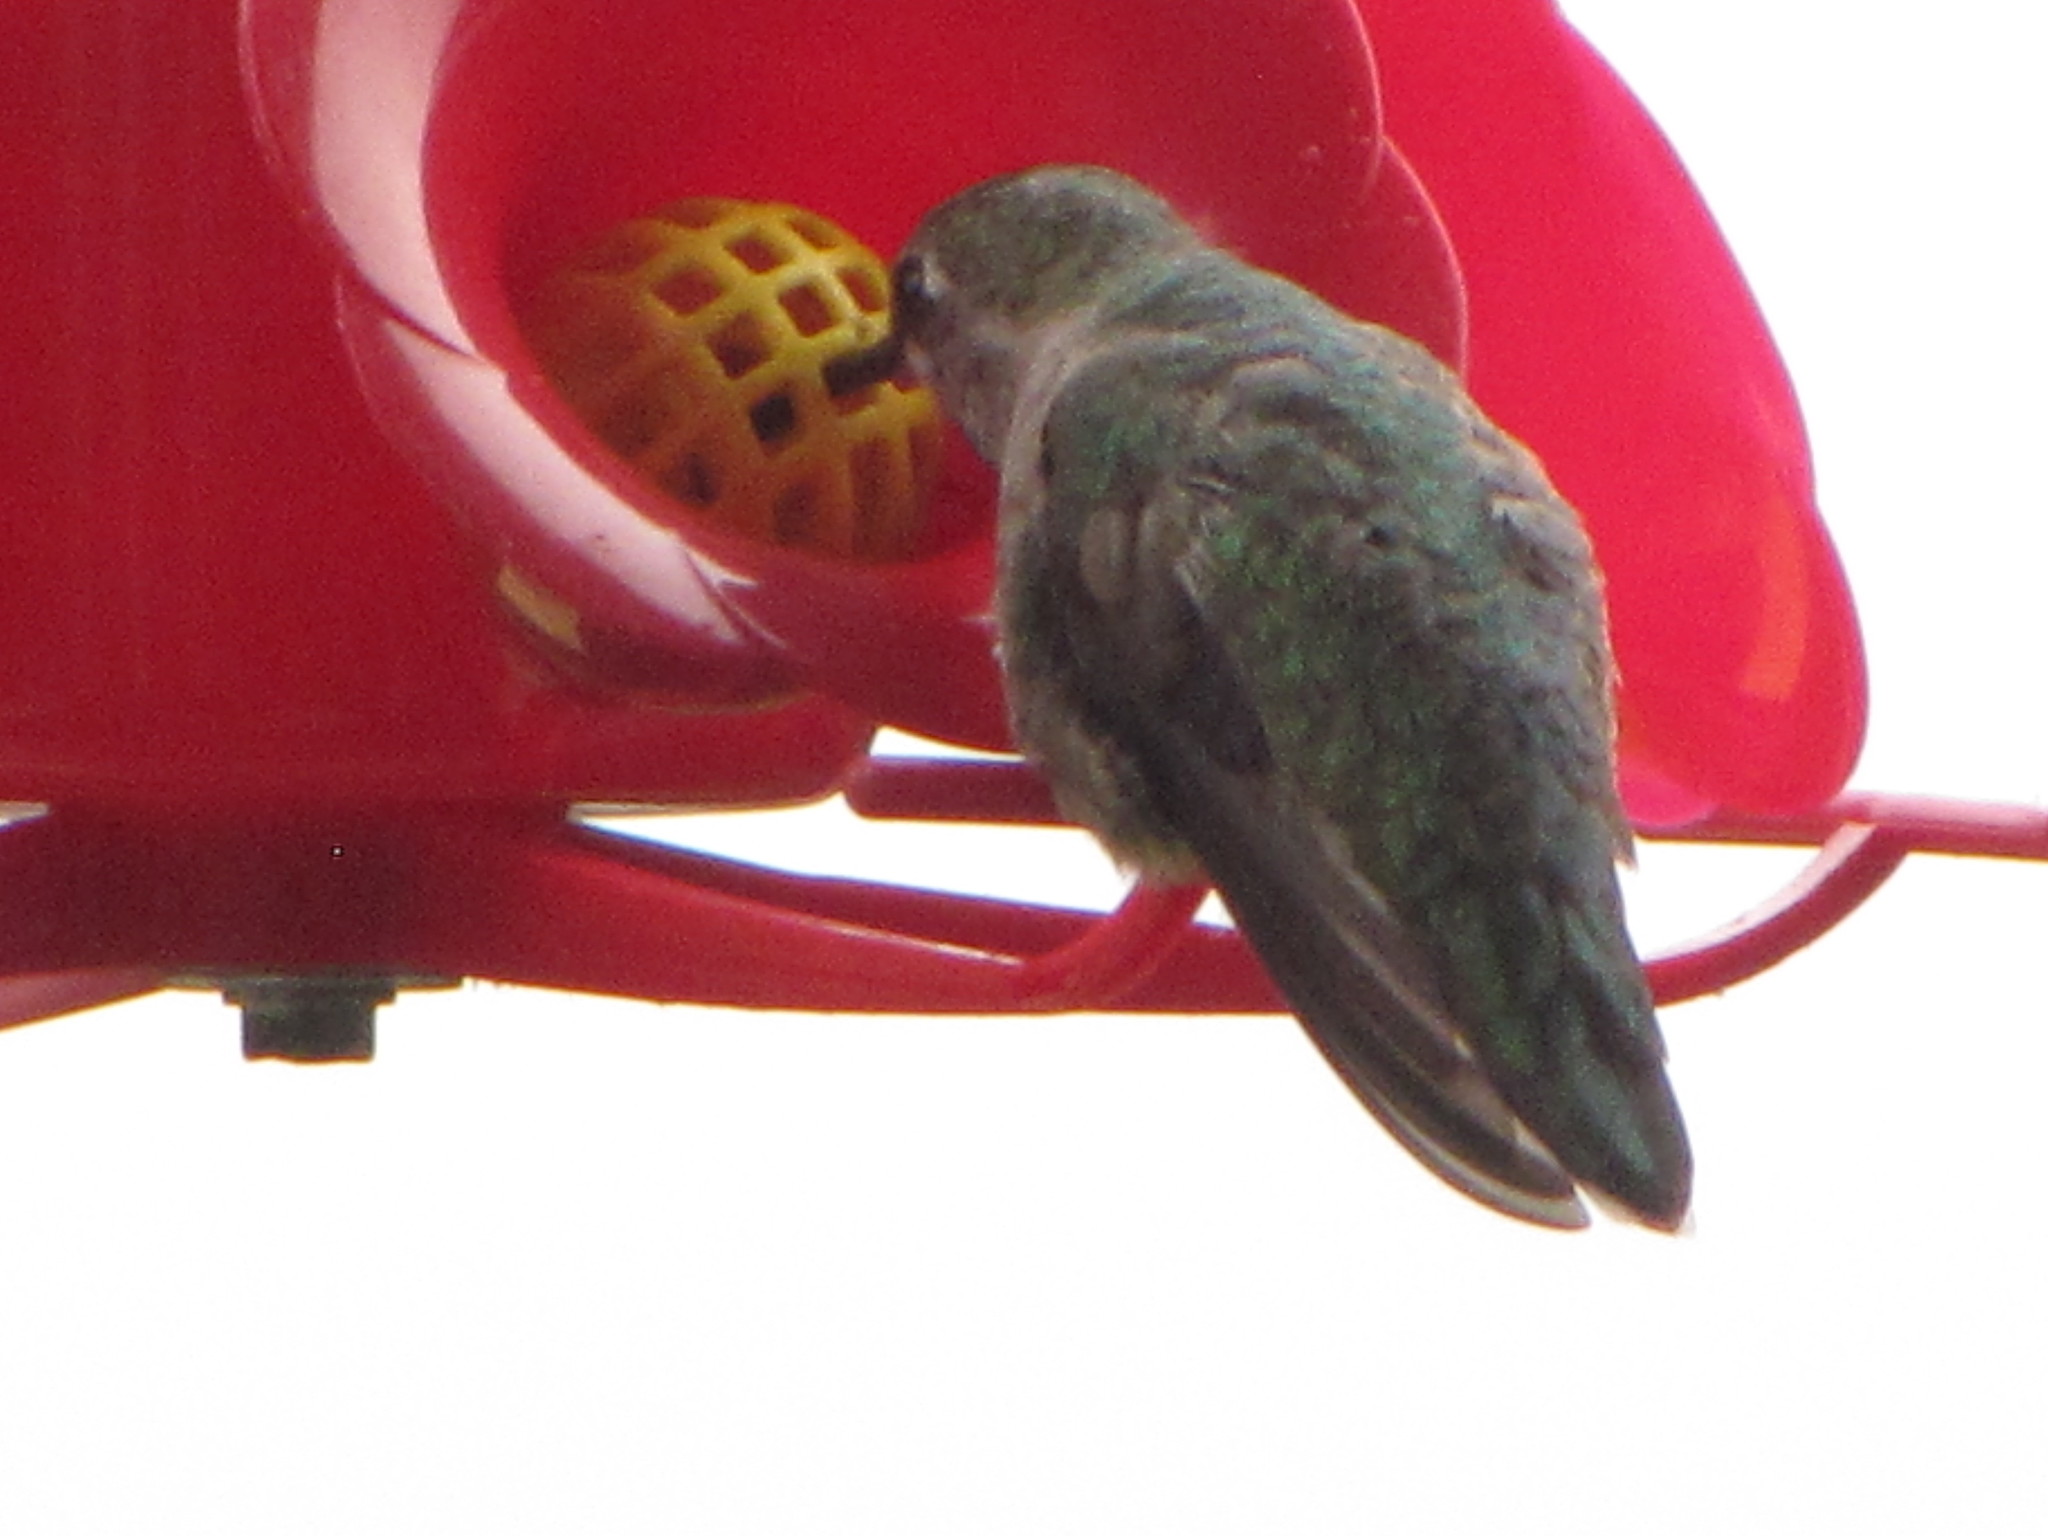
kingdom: Animalia
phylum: Chordata
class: Aves
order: Apodiformes
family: Trochilidae
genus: Calypte
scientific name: Calypte anna
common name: Anna's hummingbird
